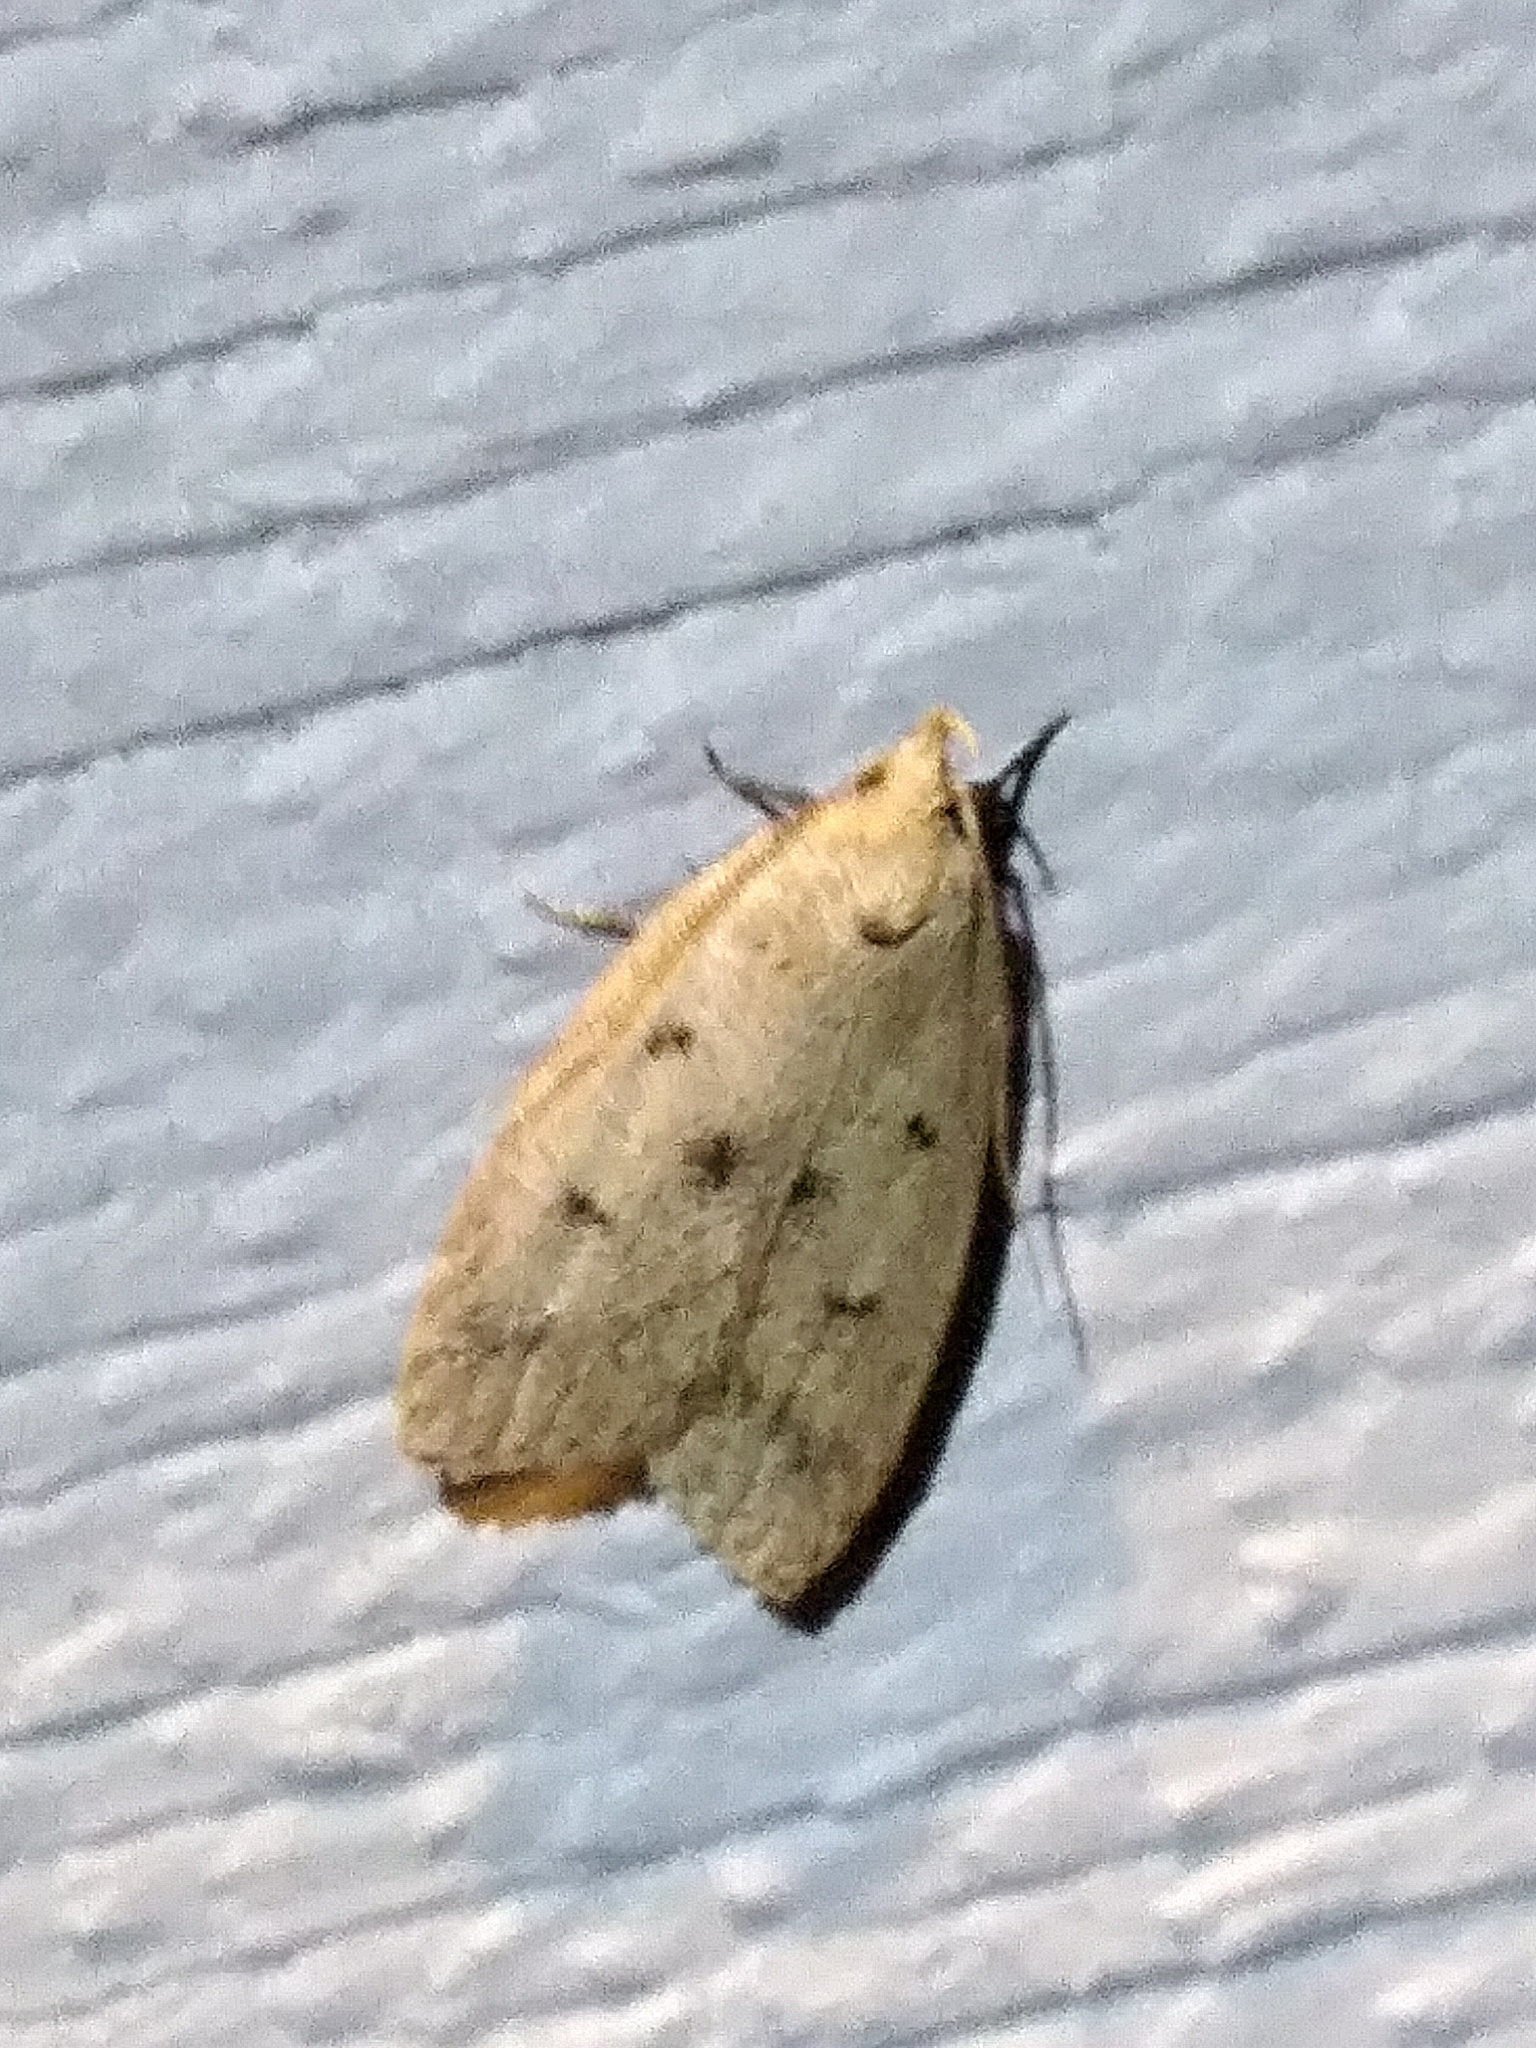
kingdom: Animalia
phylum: Arthropoda
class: Insecta
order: Lepidoptera
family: Peleopodidae
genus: Machimia
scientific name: Machimia tentoriferella
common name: Gold-striped leaftier moth
